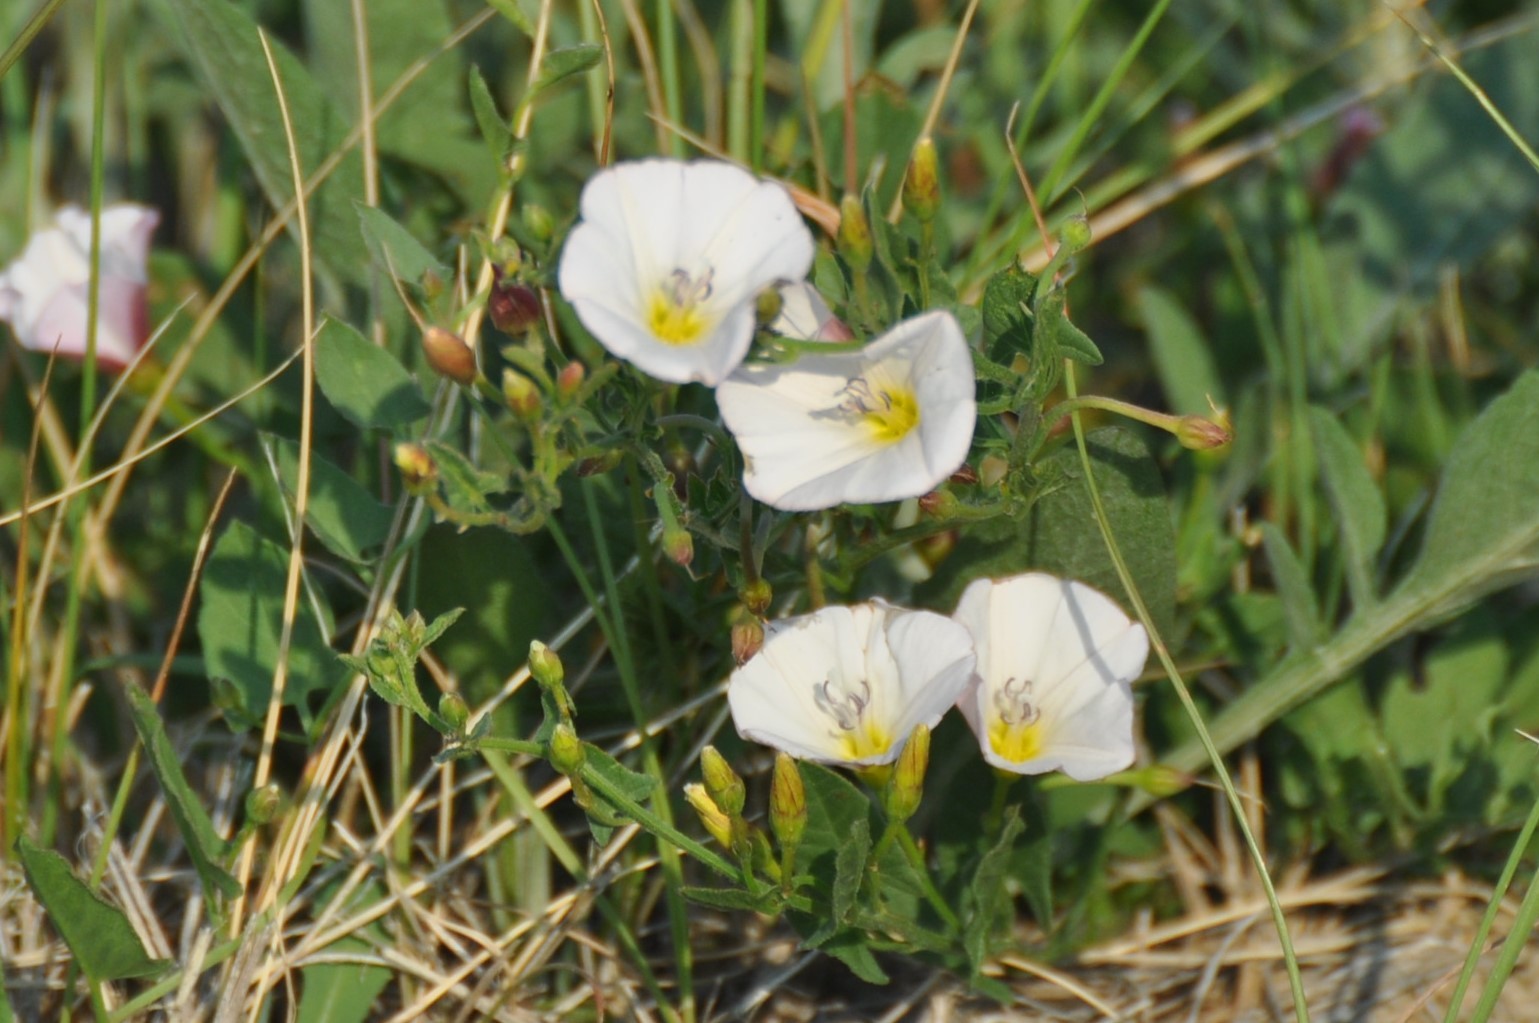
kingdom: Plantae
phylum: Tracheophyta
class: Magnoliopsida
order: Solanales
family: Convolvulaceae
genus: Convolvulus
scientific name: Convolvulus arvensis
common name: Field bindweed
